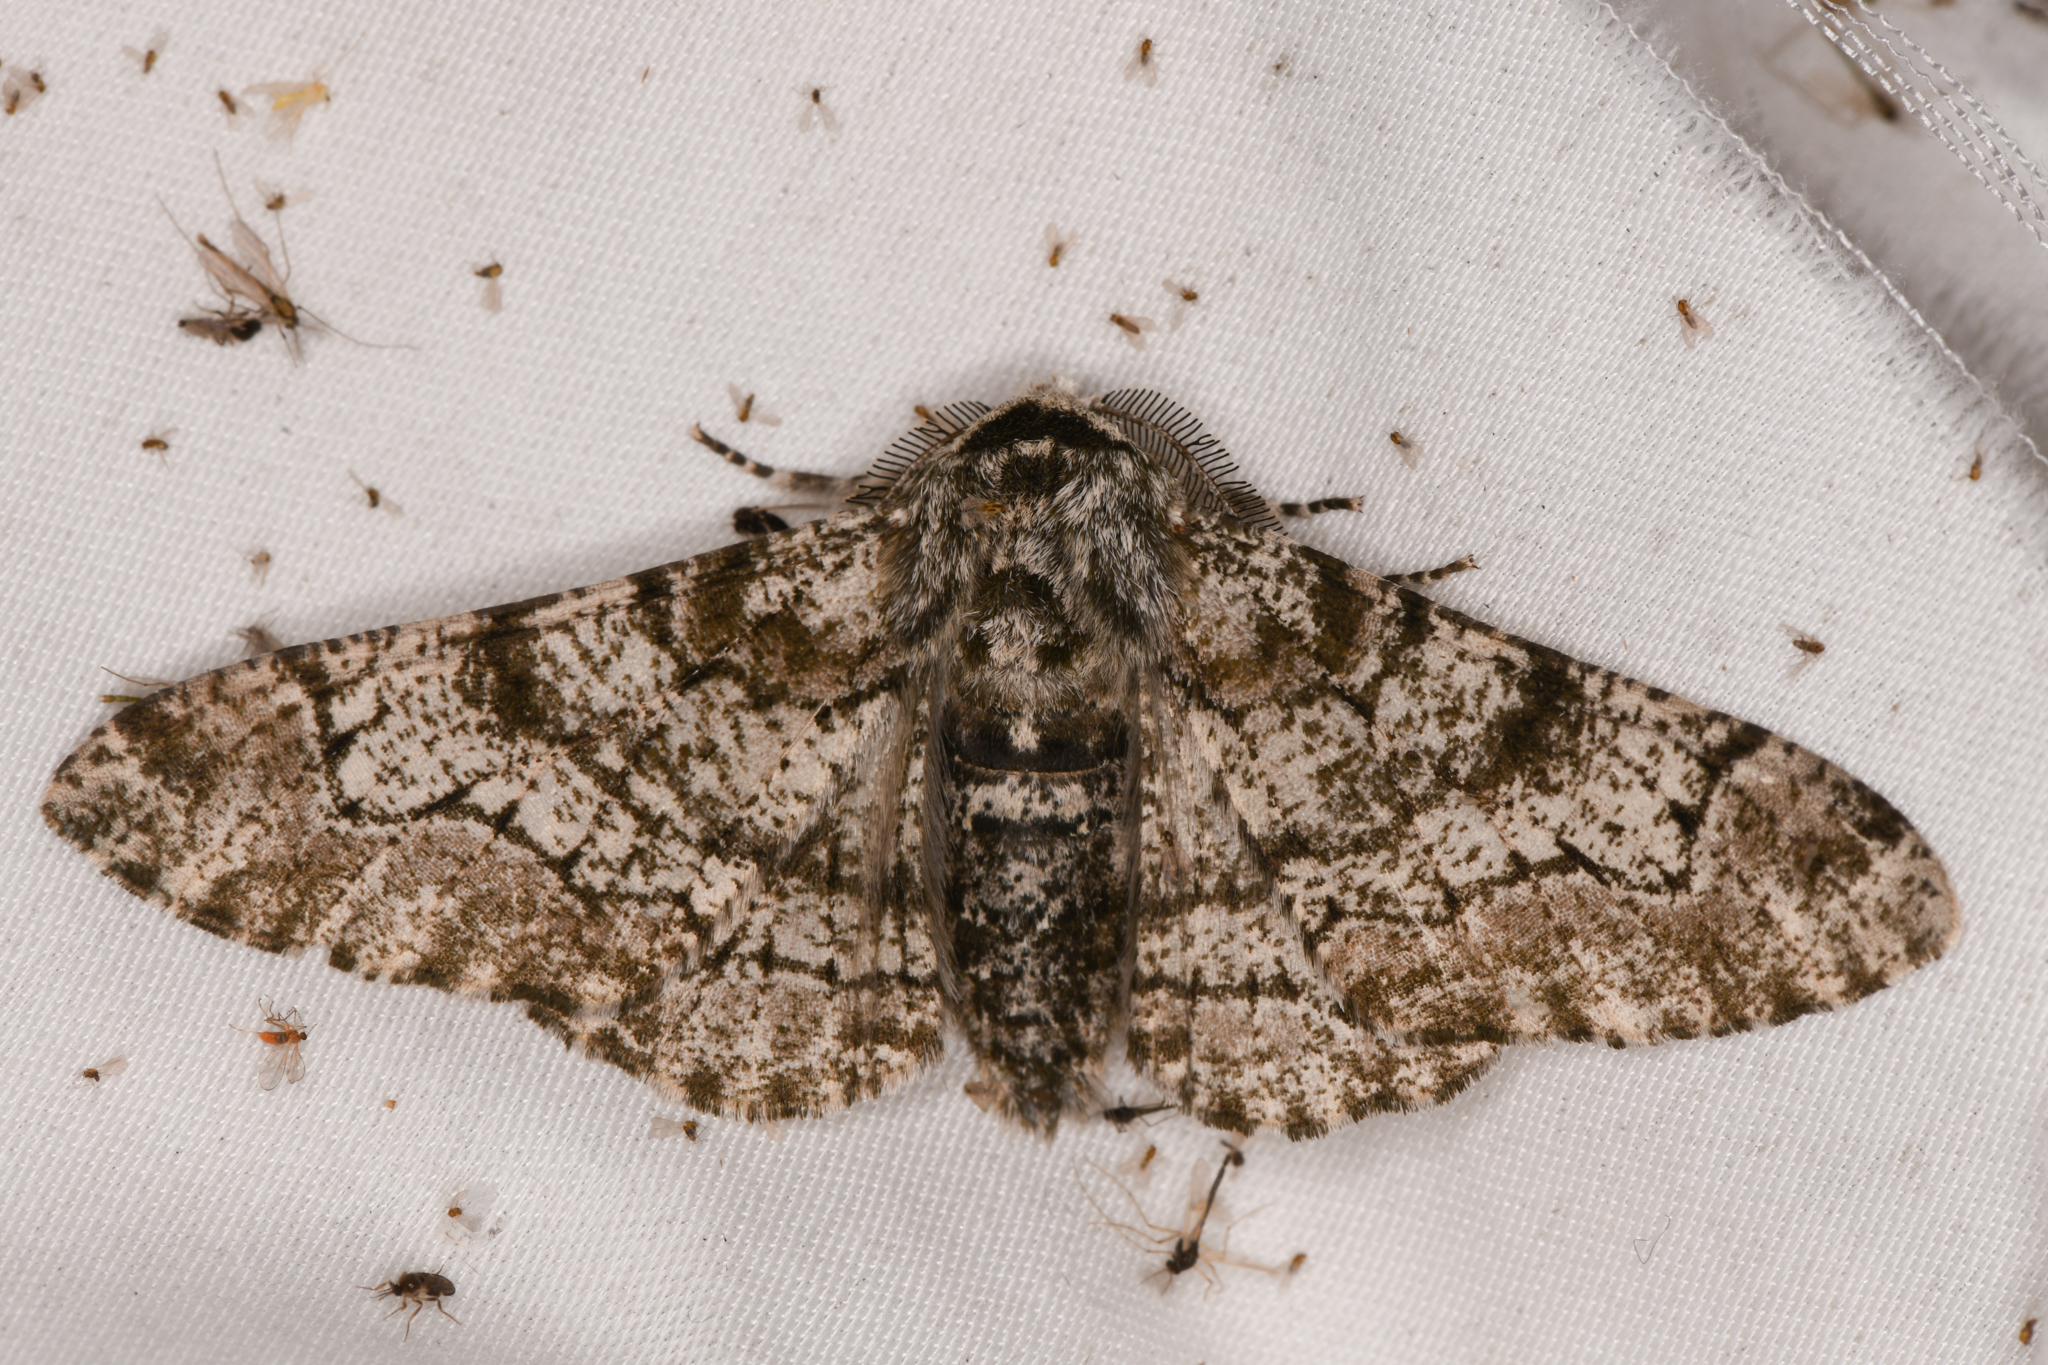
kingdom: Animalia
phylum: Arthropoda
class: Insecta
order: Lepidoptera
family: Geometridae
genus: Biston
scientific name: Biston betularia
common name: Peppered moth
